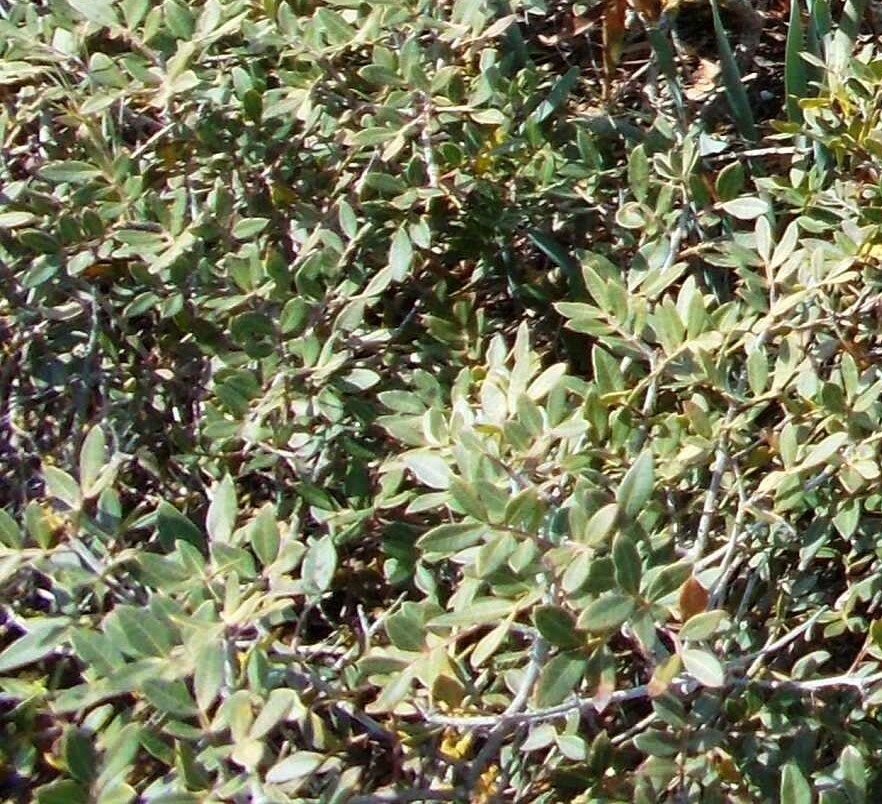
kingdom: Plantae
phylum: Tracheophyta
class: Magnoliopsida
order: Sapindales
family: Anacardiaceae
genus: Pistacia
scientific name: Pistacia lentiscus
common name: Lentisk
